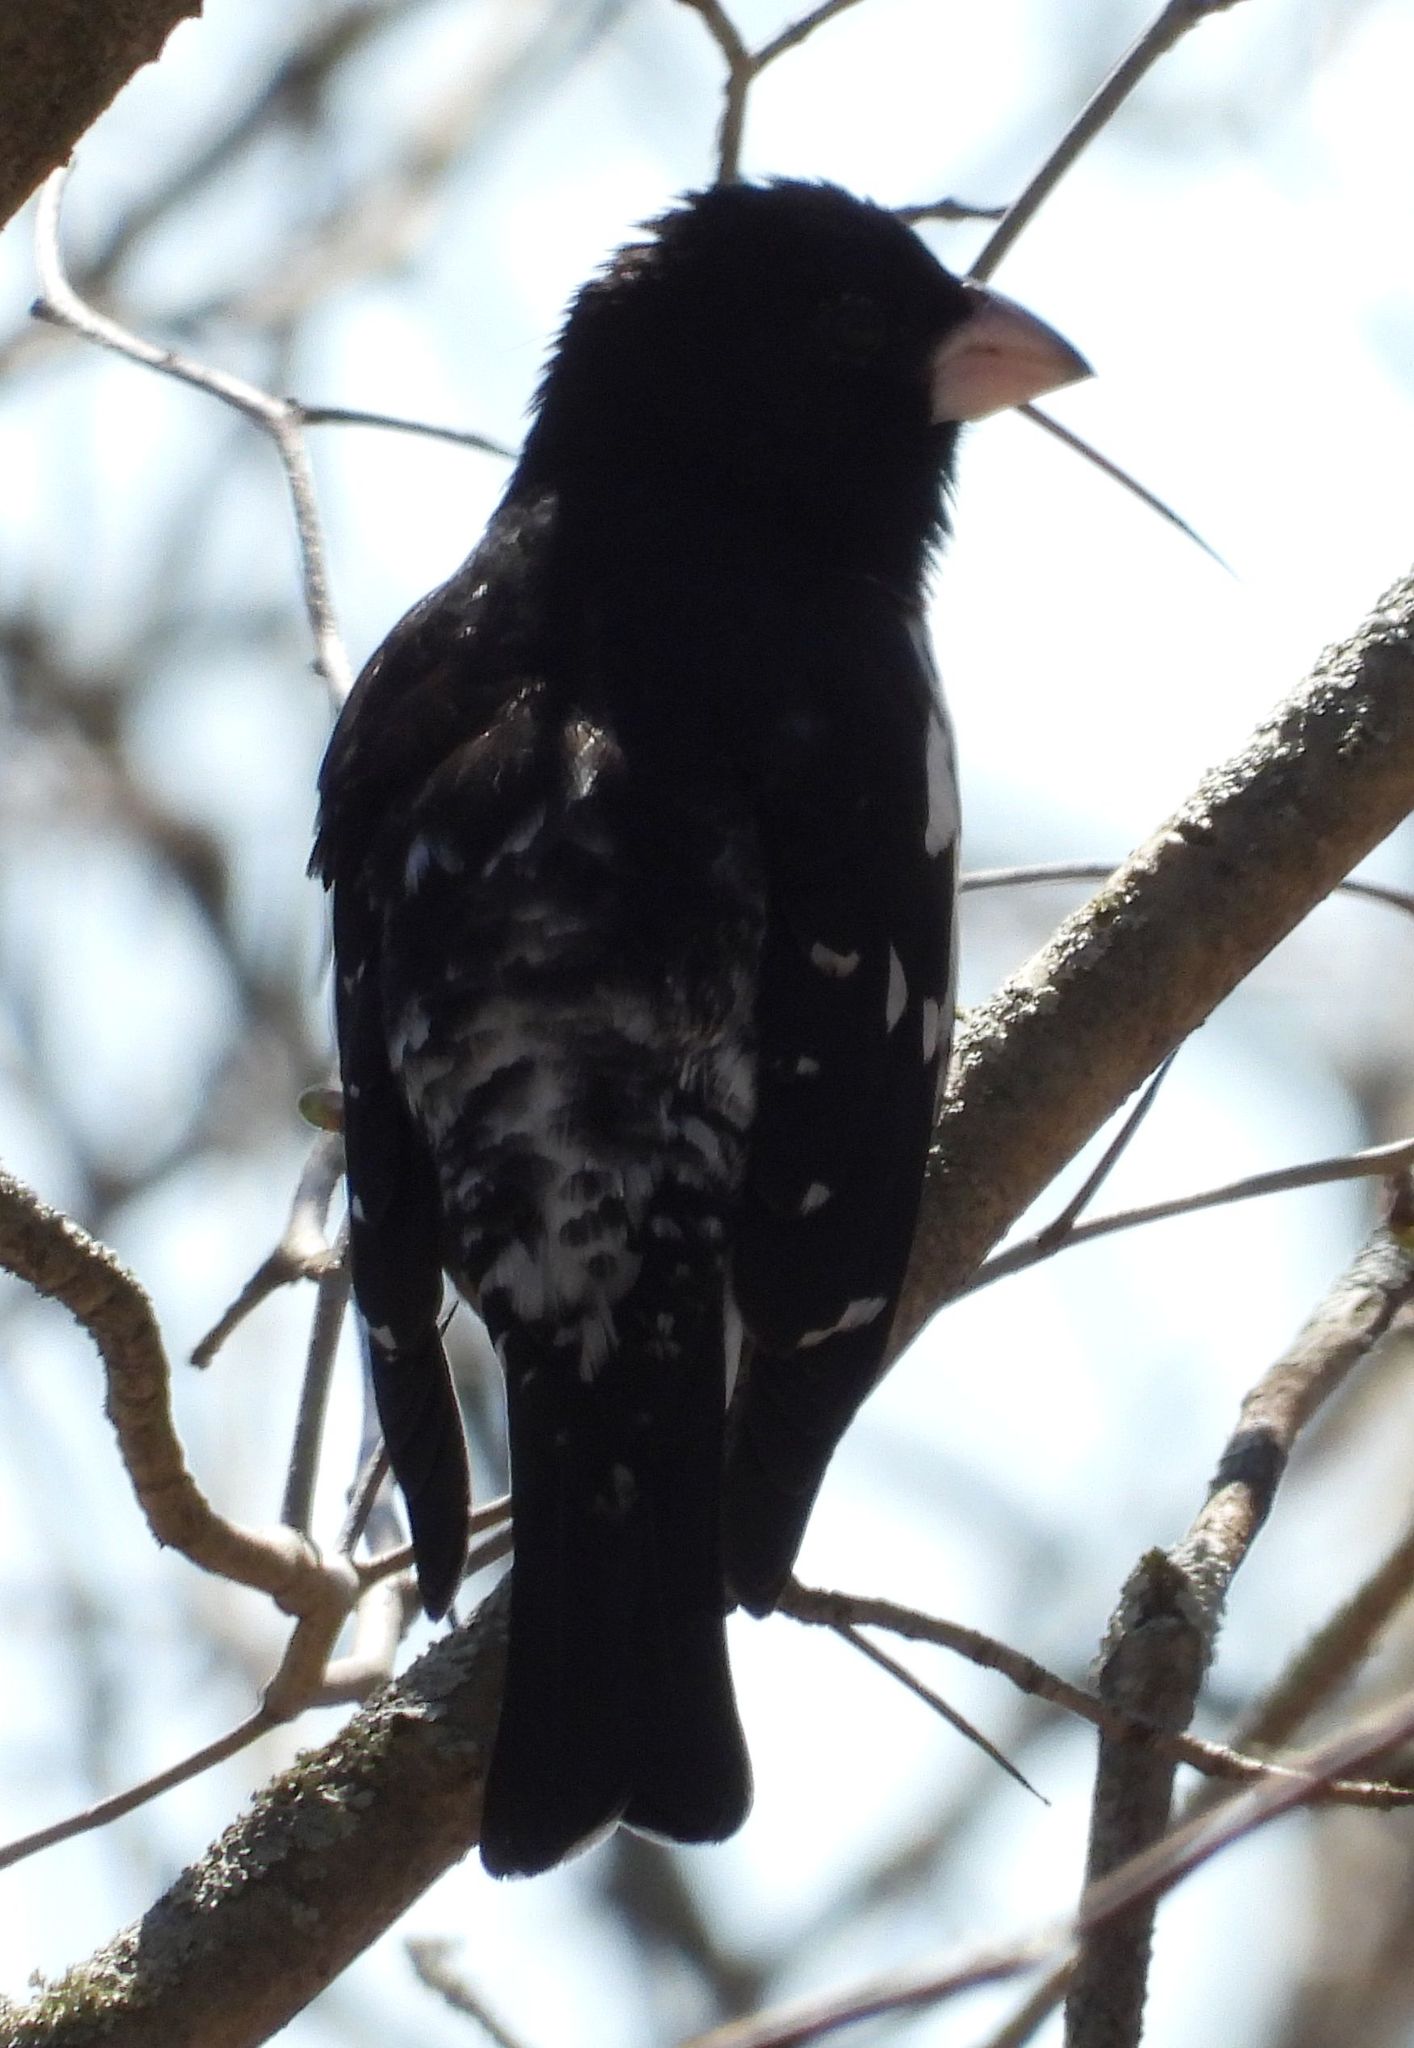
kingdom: Animalia
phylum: Chordata
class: Aves
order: Passeriformes
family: Cardinalidae
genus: Pheucticus
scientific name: Pheucticus ludovicianus
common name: Rose-breasted grosbeak
